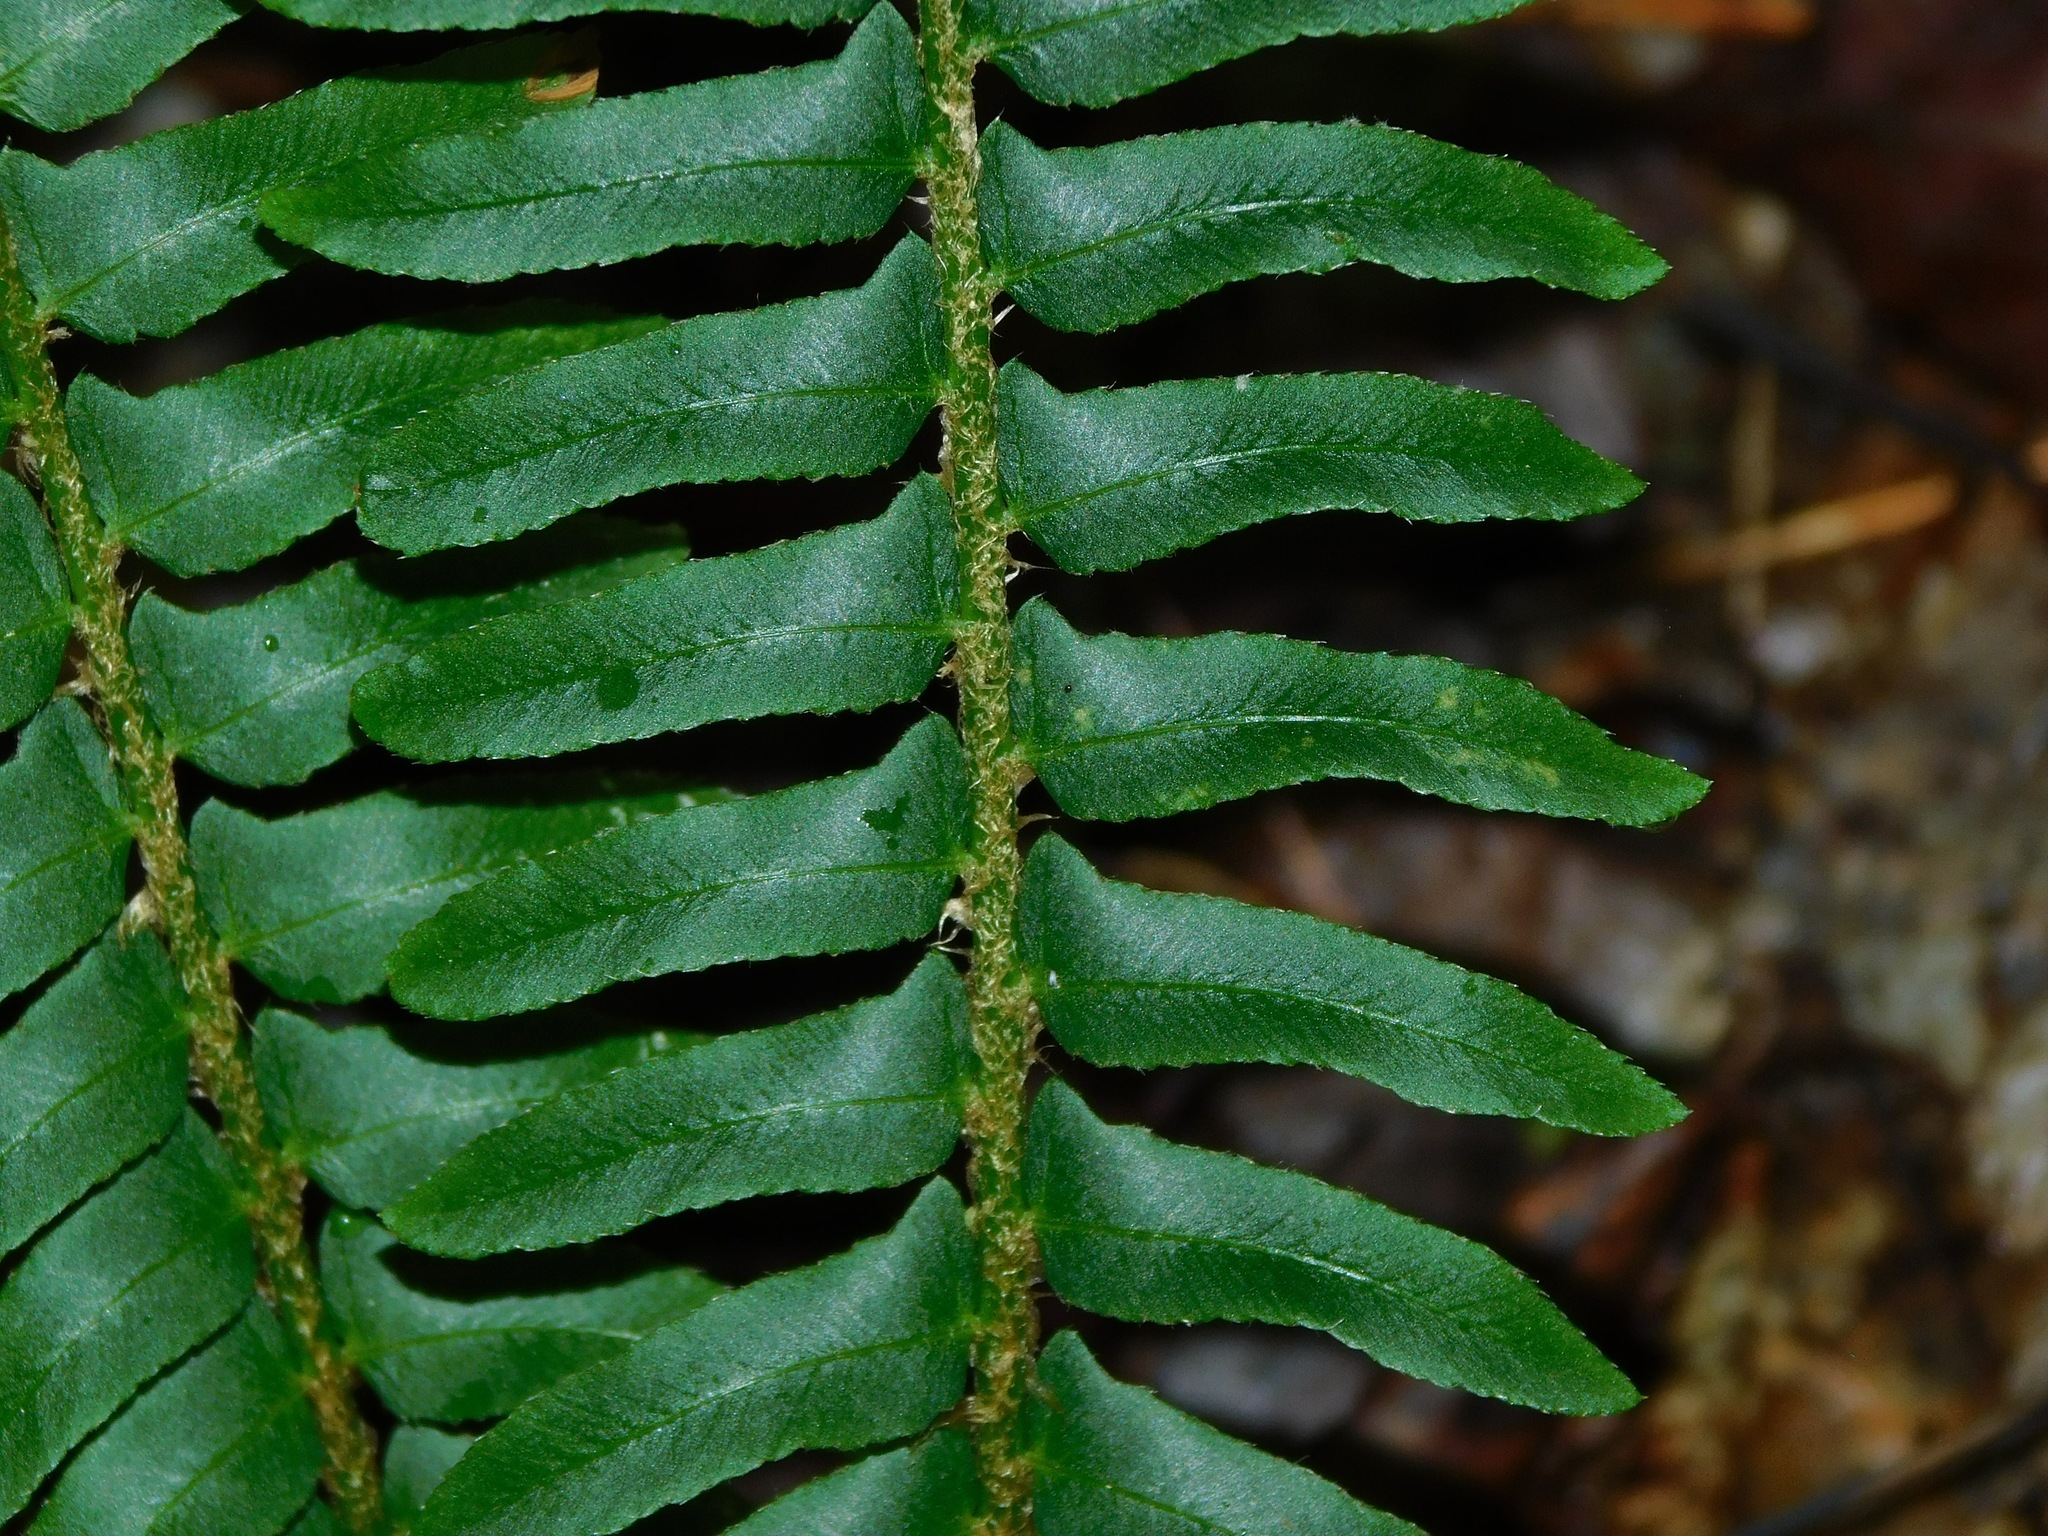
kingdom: Plantae
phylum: Tracheophyta
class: Polypodiopsida
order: Polypodiales
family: Dryopteridaceae
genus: Polystichum
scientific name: Polystichum acrostichoides
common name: Christmas fern
